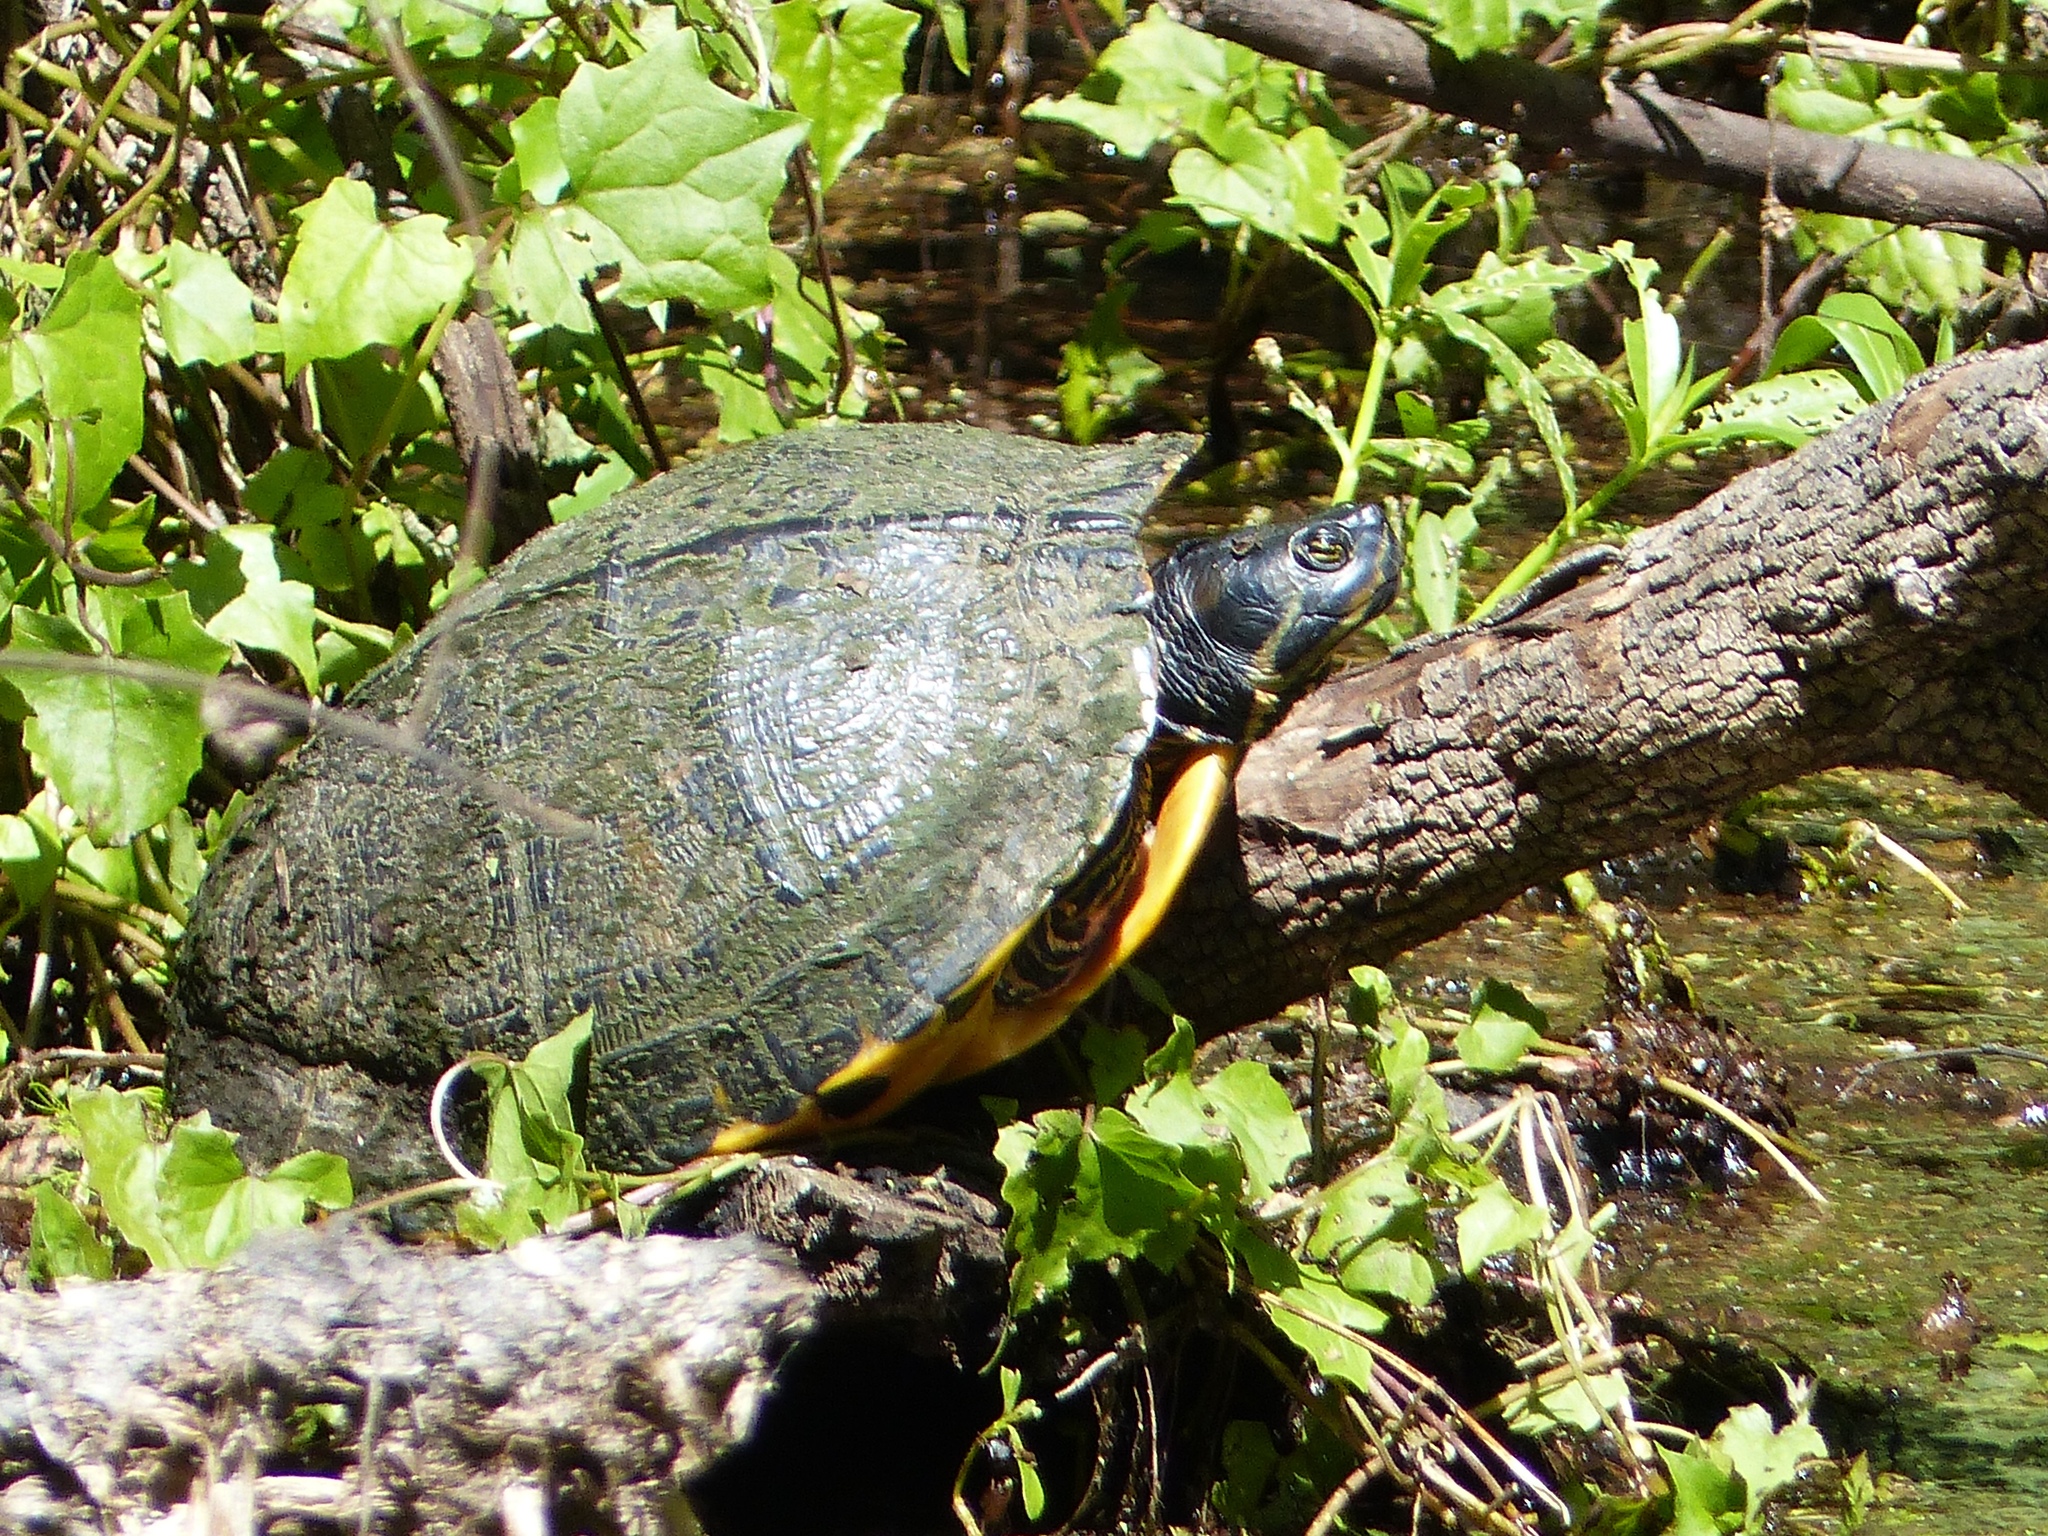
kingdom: Animalia
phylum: Chordata
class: Testudines
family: Emydidae
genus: Trachemys
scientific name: Trachemys scripta
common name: Slider
